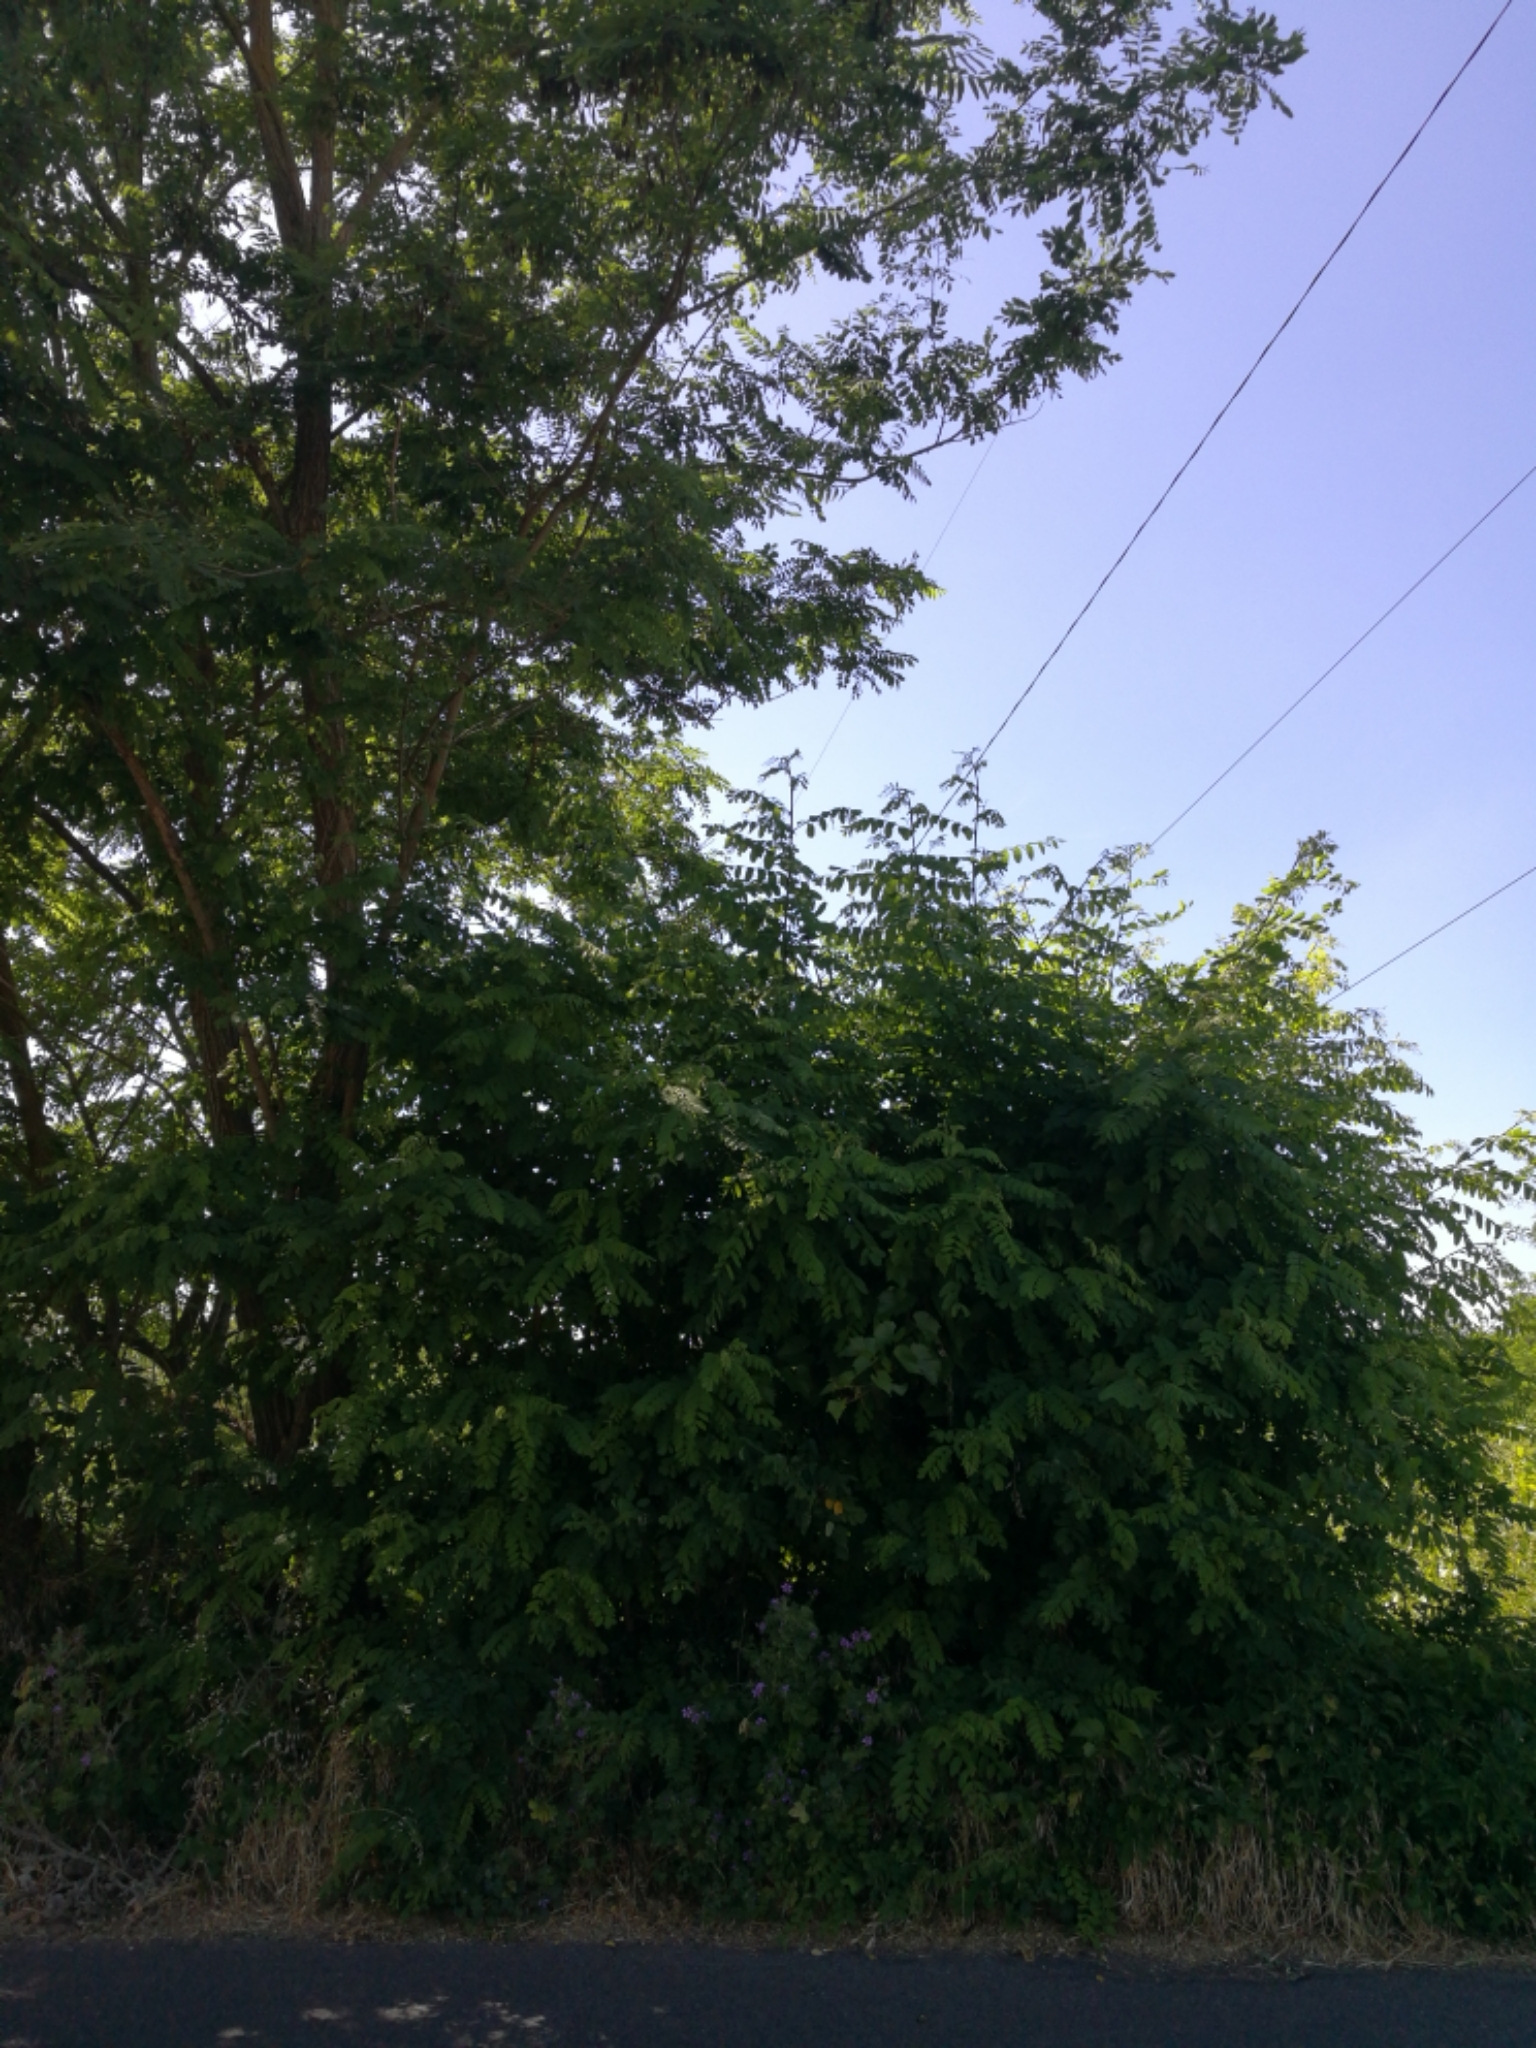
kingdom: Plantae
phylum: Tracheophyta
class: Magnoliopsida
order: Fabales
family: Fabaceae
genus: Robinia
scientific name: Robinia pseudoacacia
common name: Black locust
